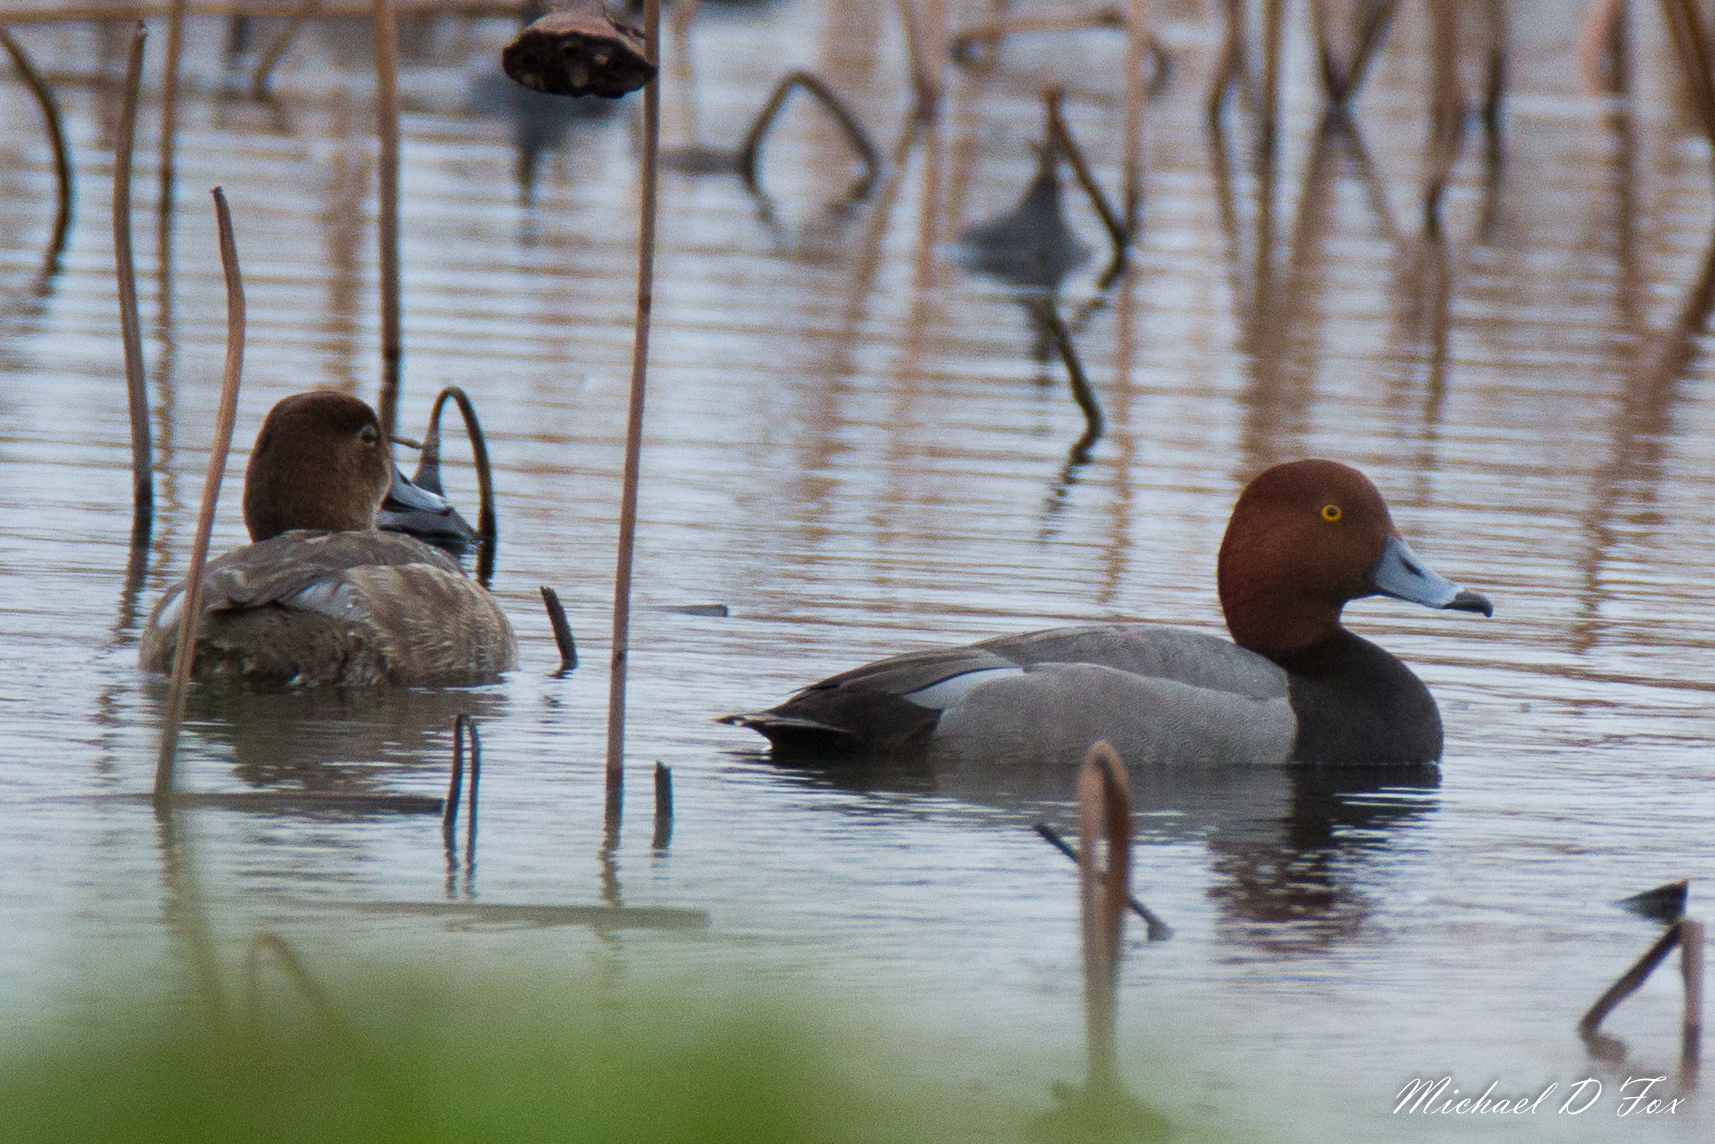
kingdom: Animalia
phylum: Chordata
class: Aves
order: Anseriformes
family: Anatidae
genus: Aythya
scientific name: Aythya americana
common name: Redhead
